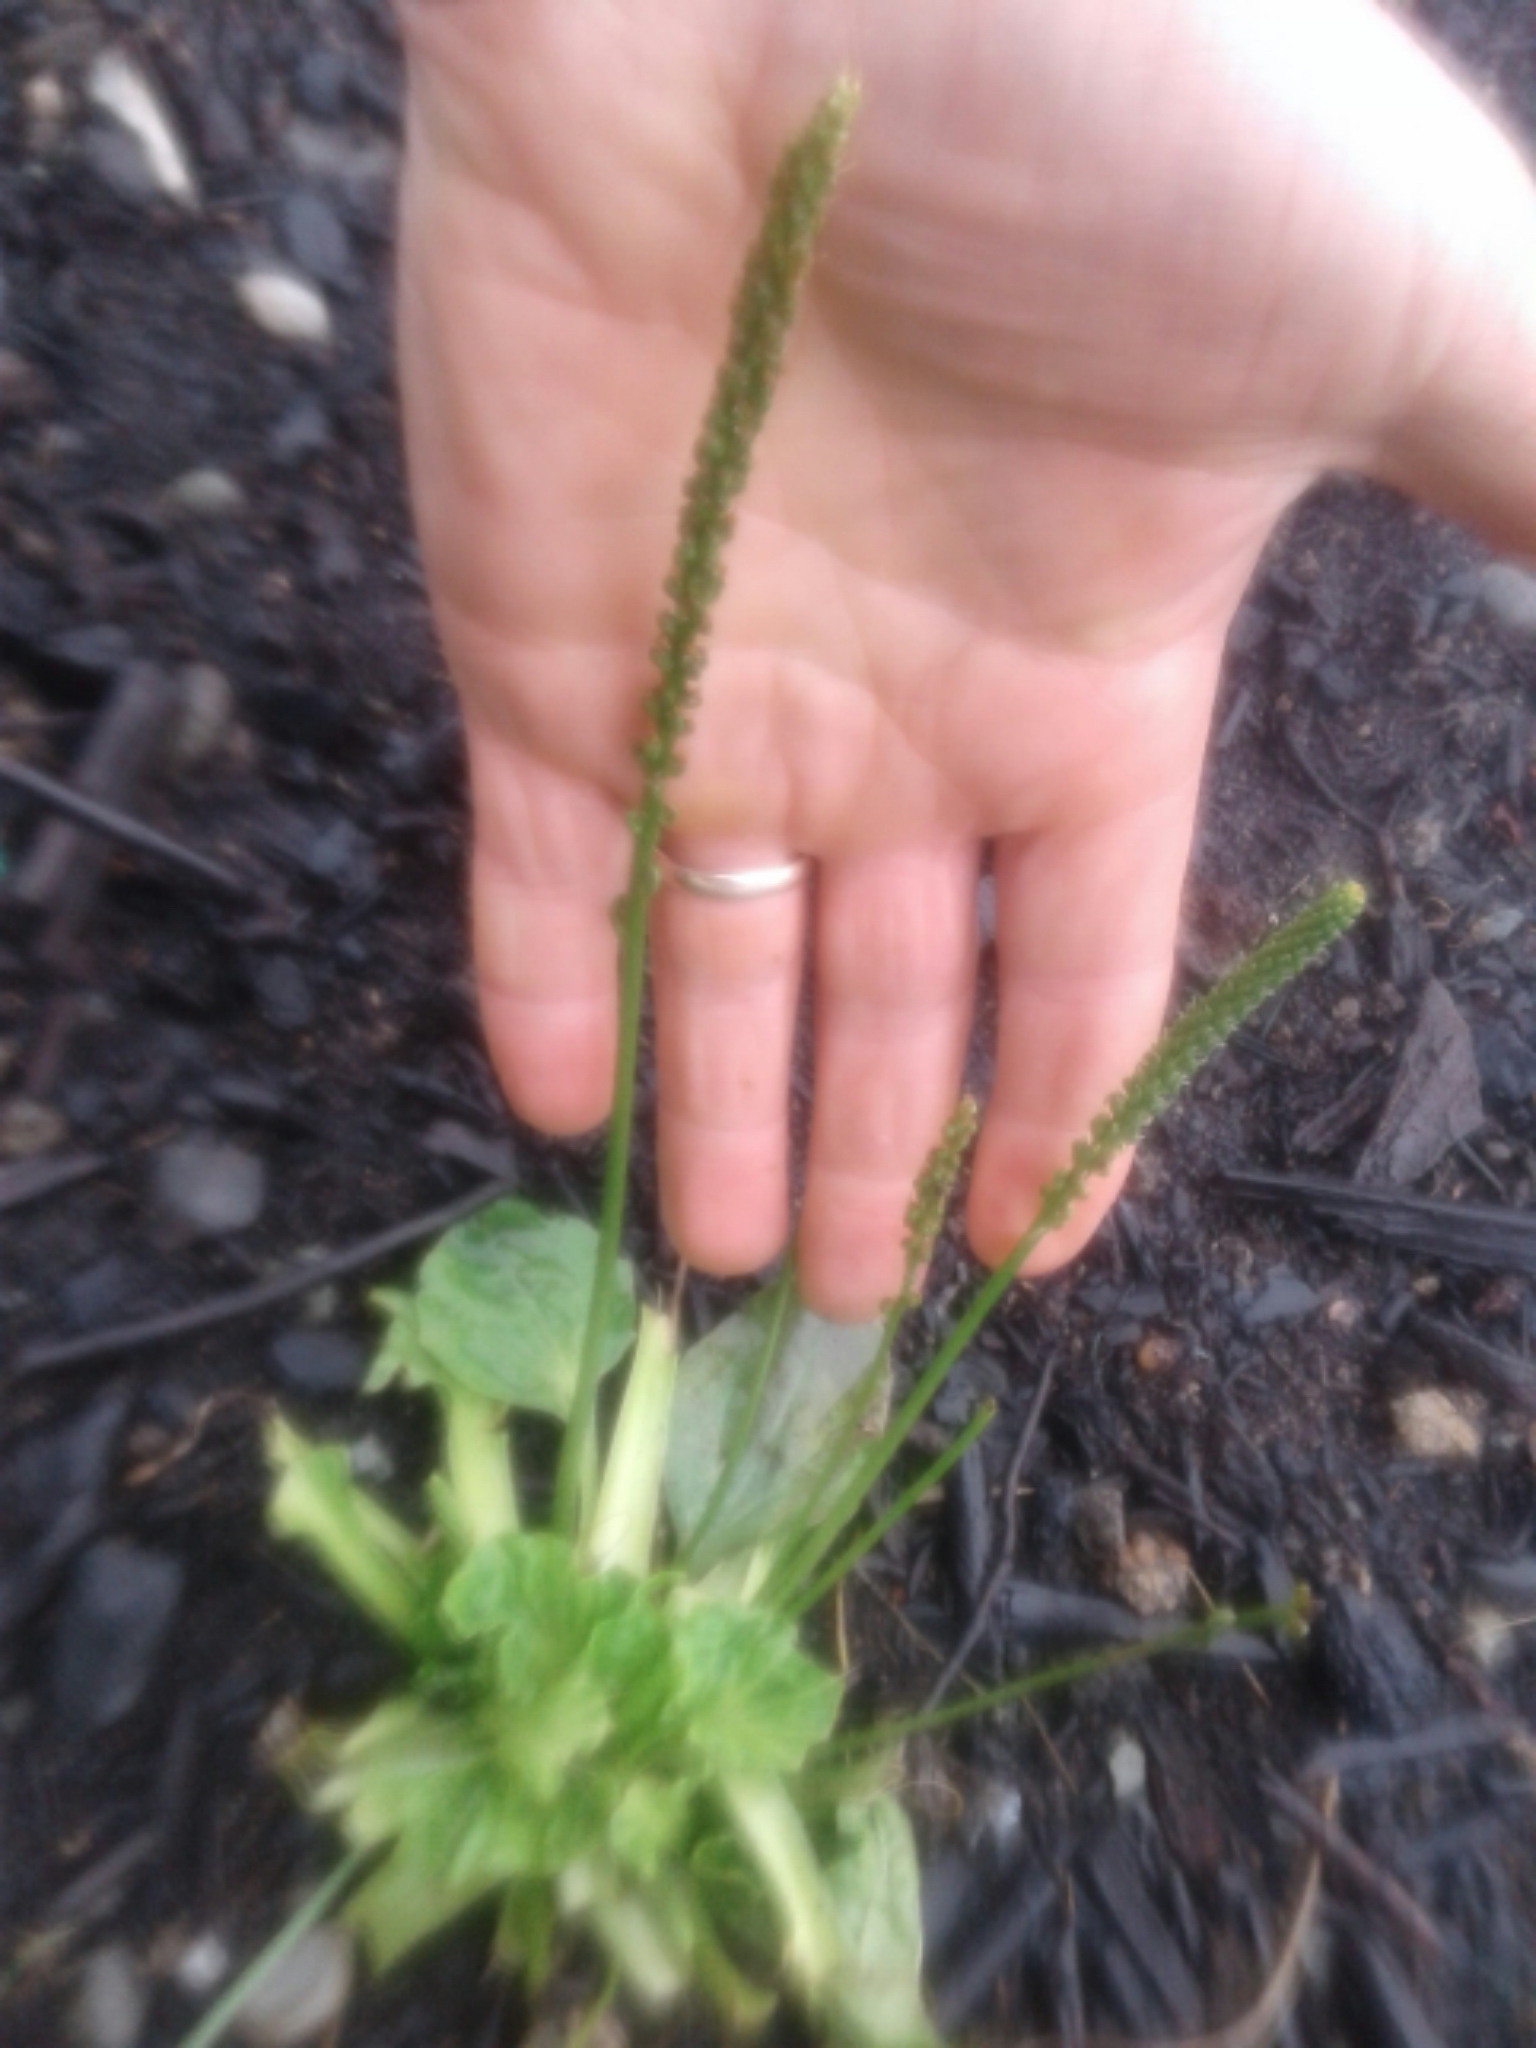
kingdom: Plantae
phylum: Tracheophyta
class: Magnoliopsida
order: Lamiales
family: Plantaginaceae
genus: Plantago
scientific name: Plantago major
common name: Common plantain
